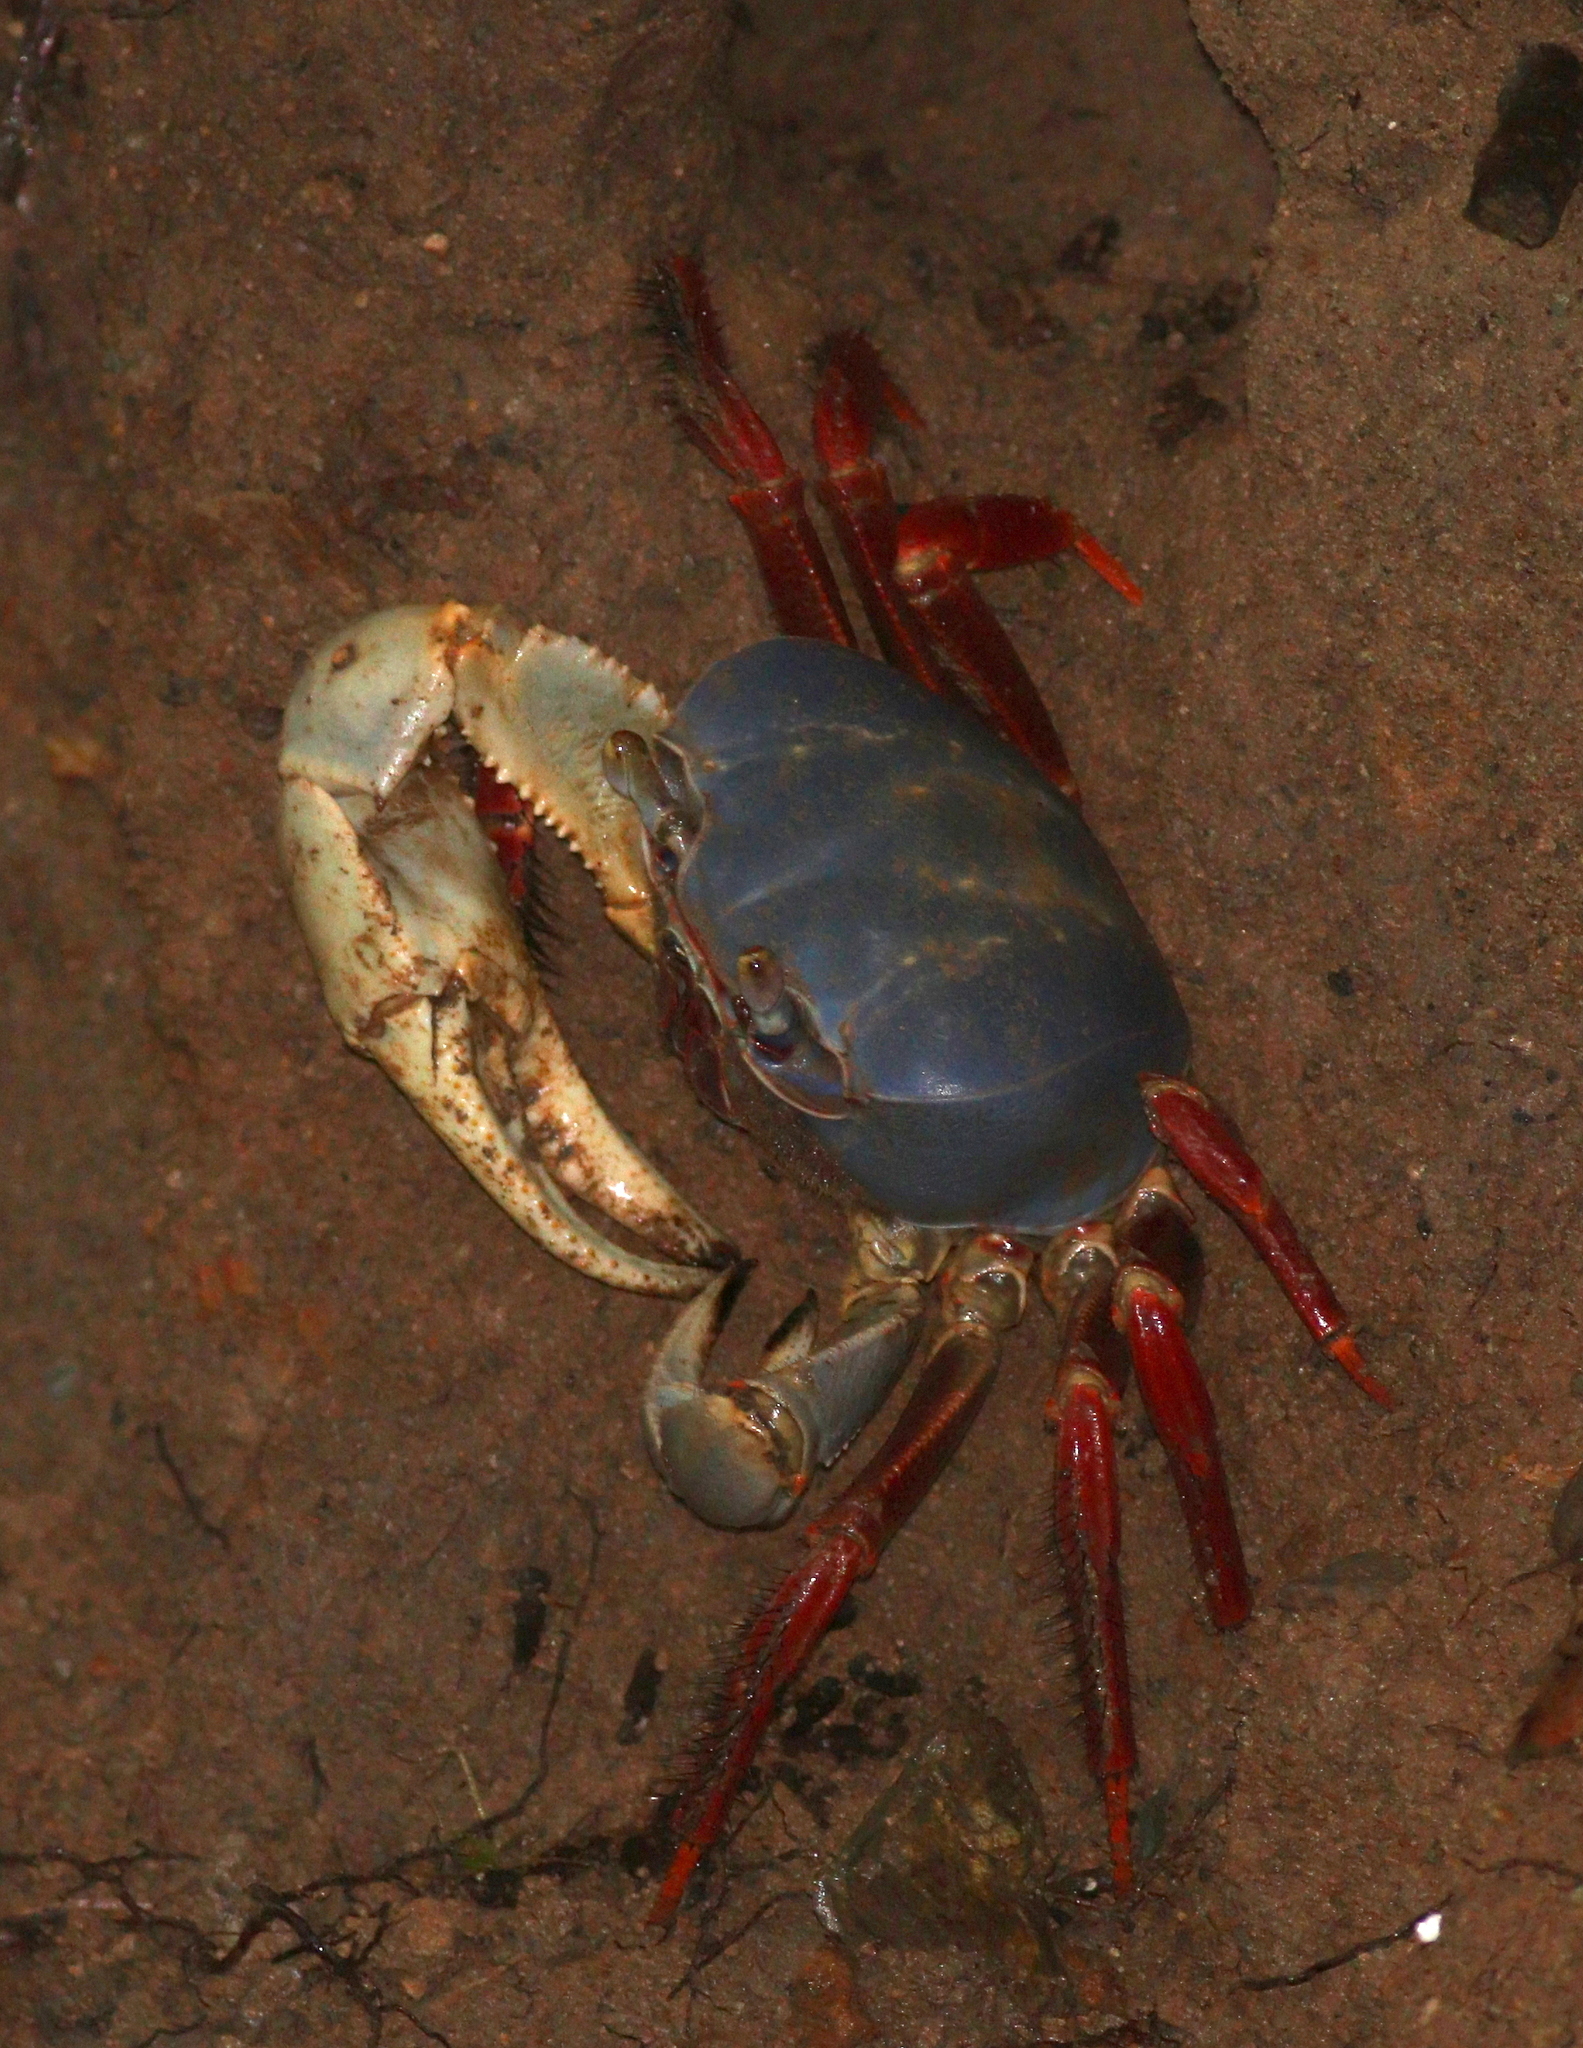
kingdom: Animalia
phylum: Arthropoda
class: Malacostraca
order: Decapoda
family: Gecarcinidae
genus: Cardisoma
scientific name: Cardisoma crassum
